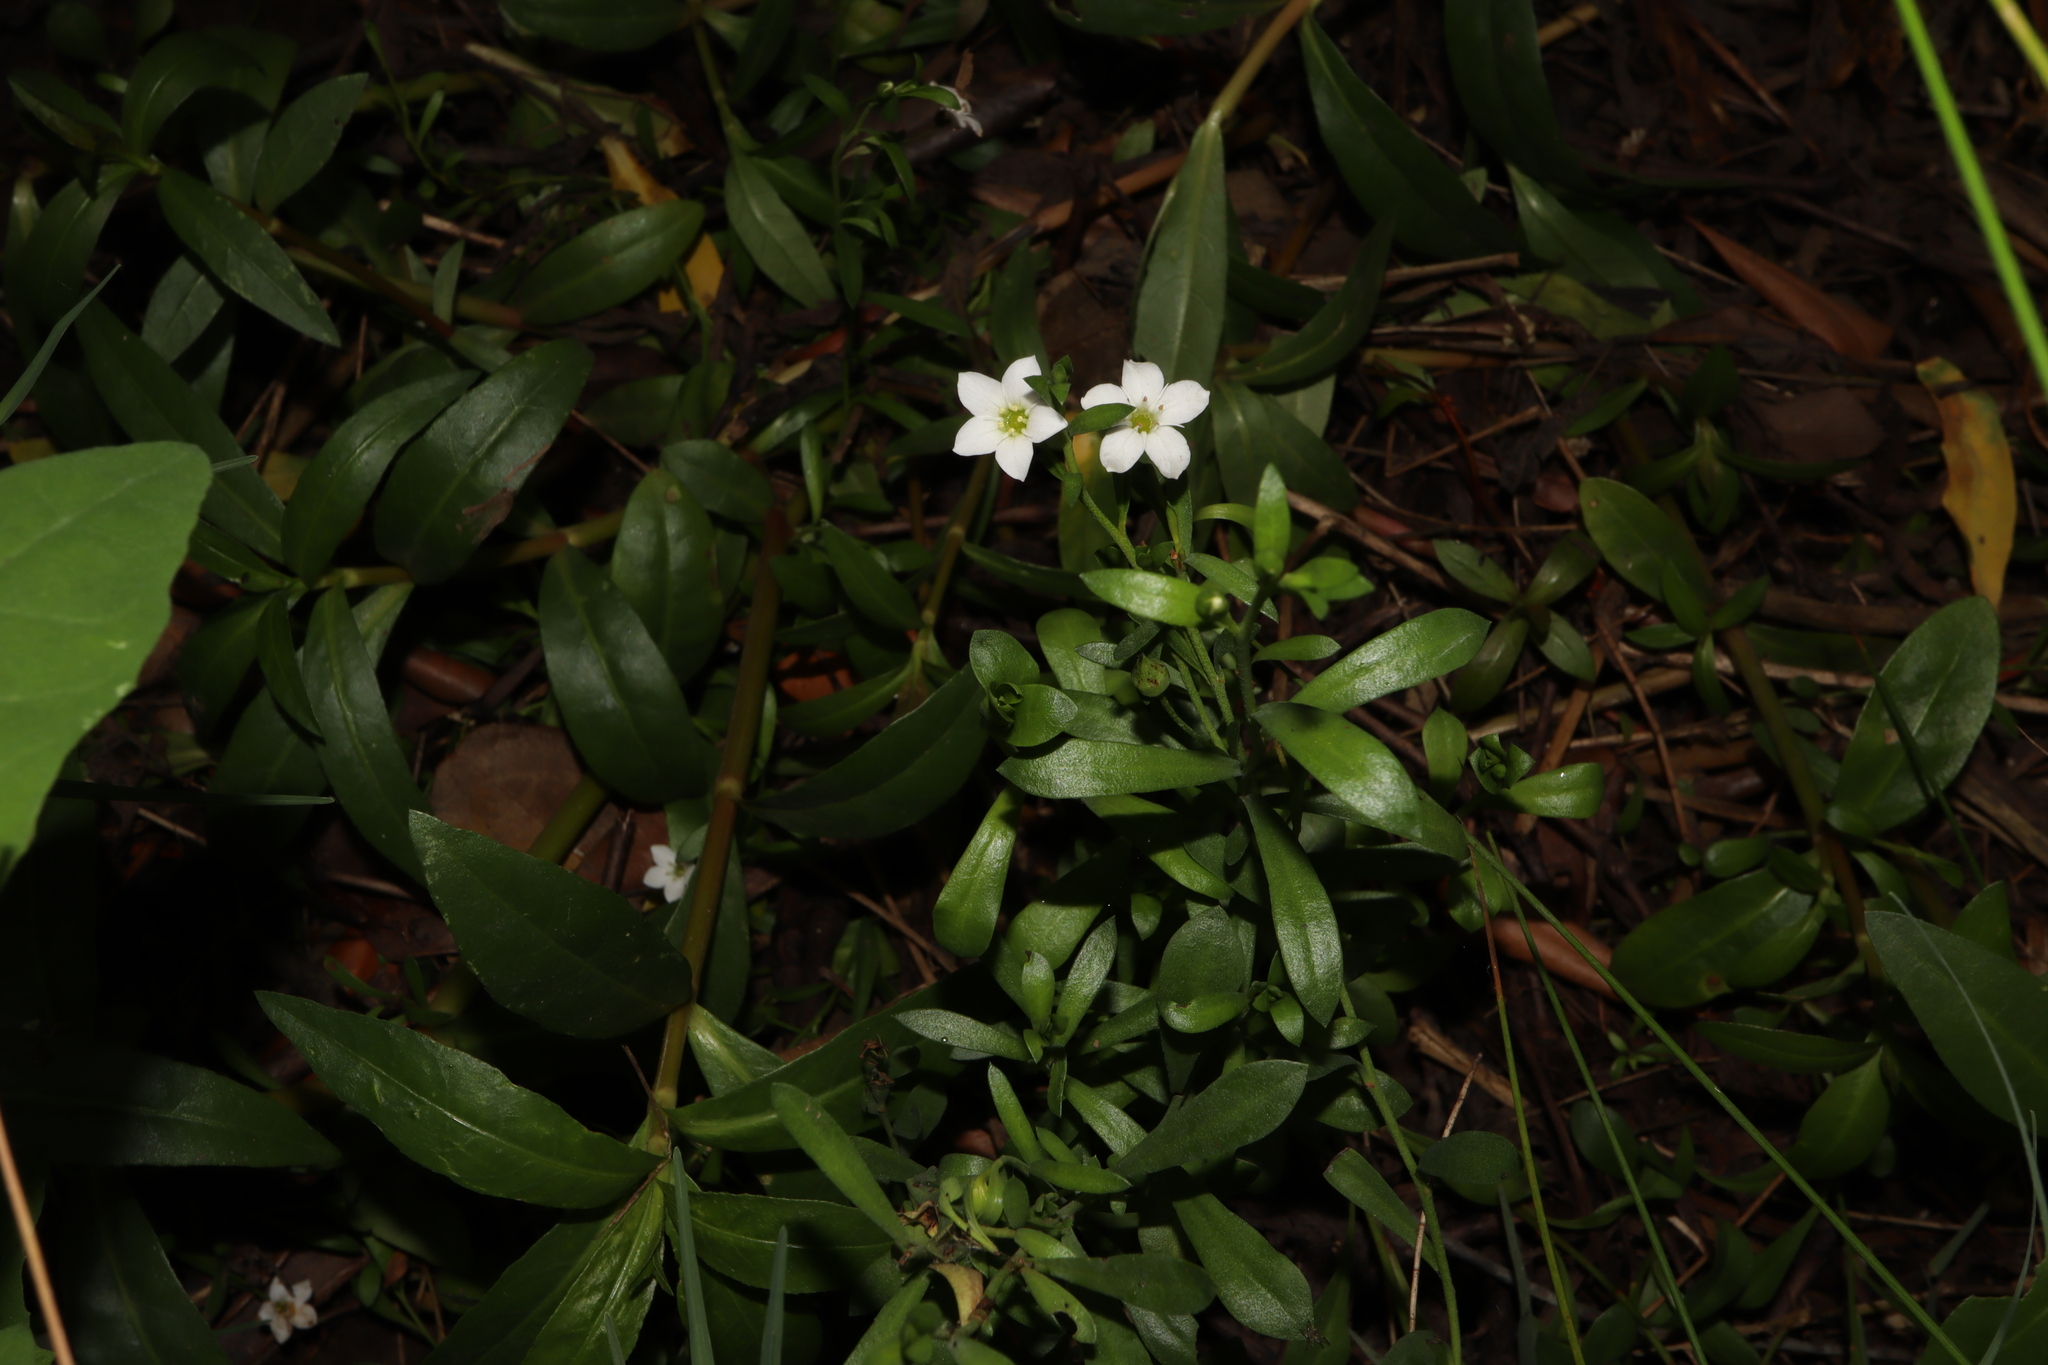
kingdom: Plantae
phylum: Tracheophyta
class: Magnoliopsida
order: Ericales
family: Primulaceae
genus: Samolus
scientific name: Samolus repens
